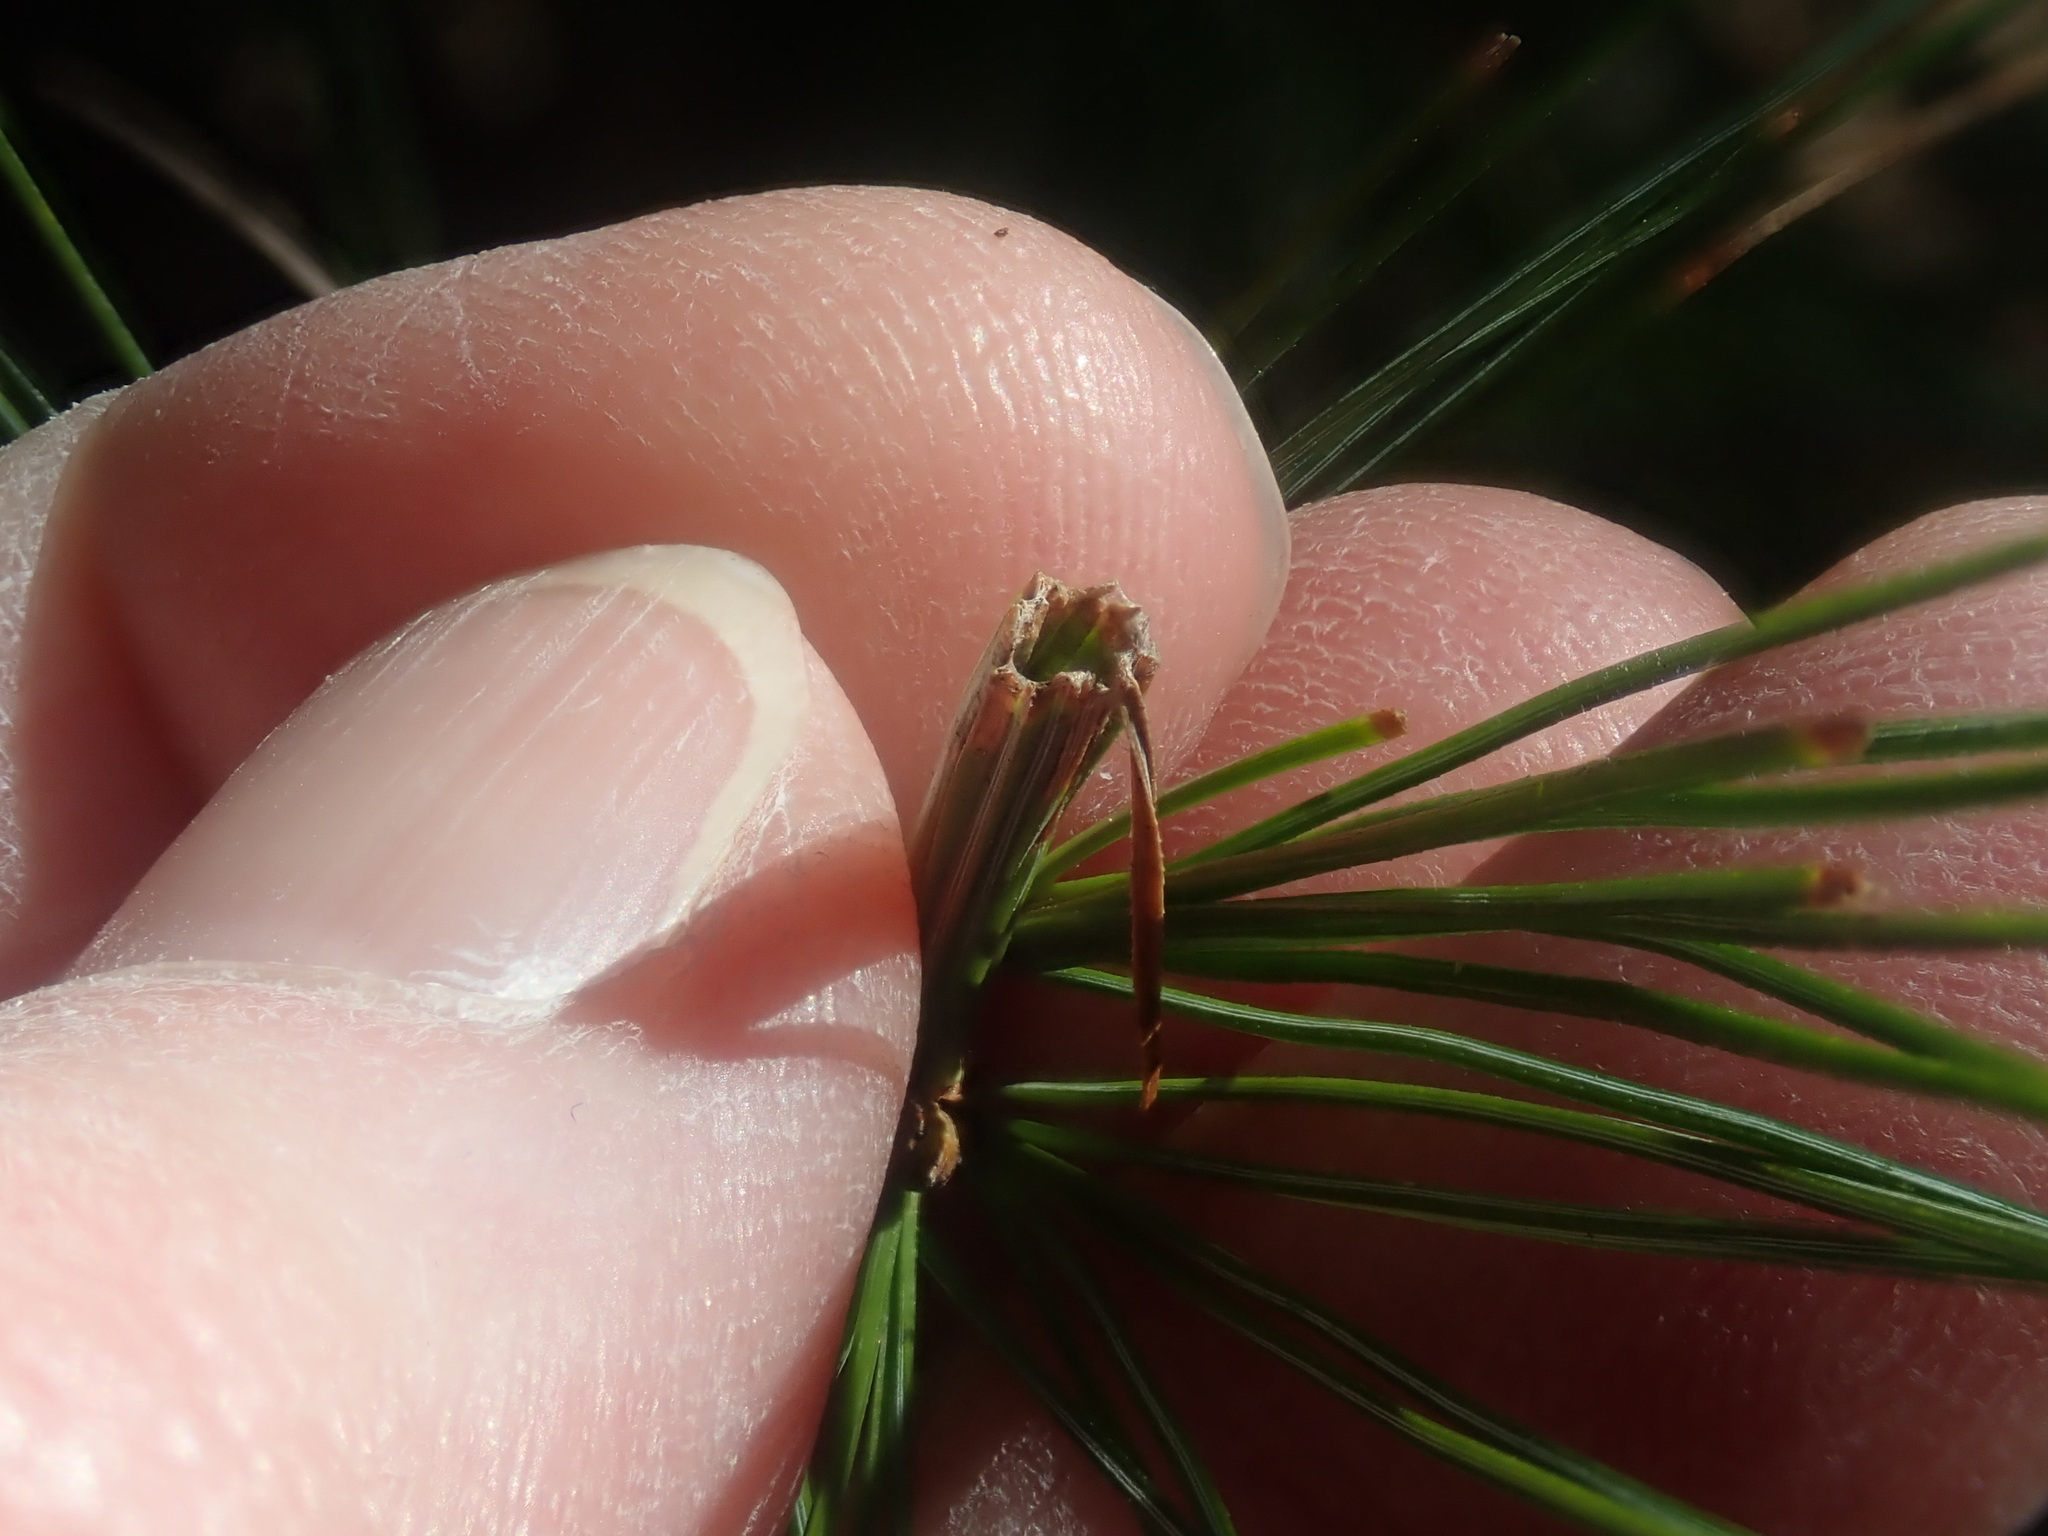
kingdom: Animalia
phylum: Arthropoda
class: Insecta
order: Lepidoptera
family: Tortricidae
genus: Argyrotaenia
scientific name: Argyrotaenia pinatubana
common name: Pine tube moth
